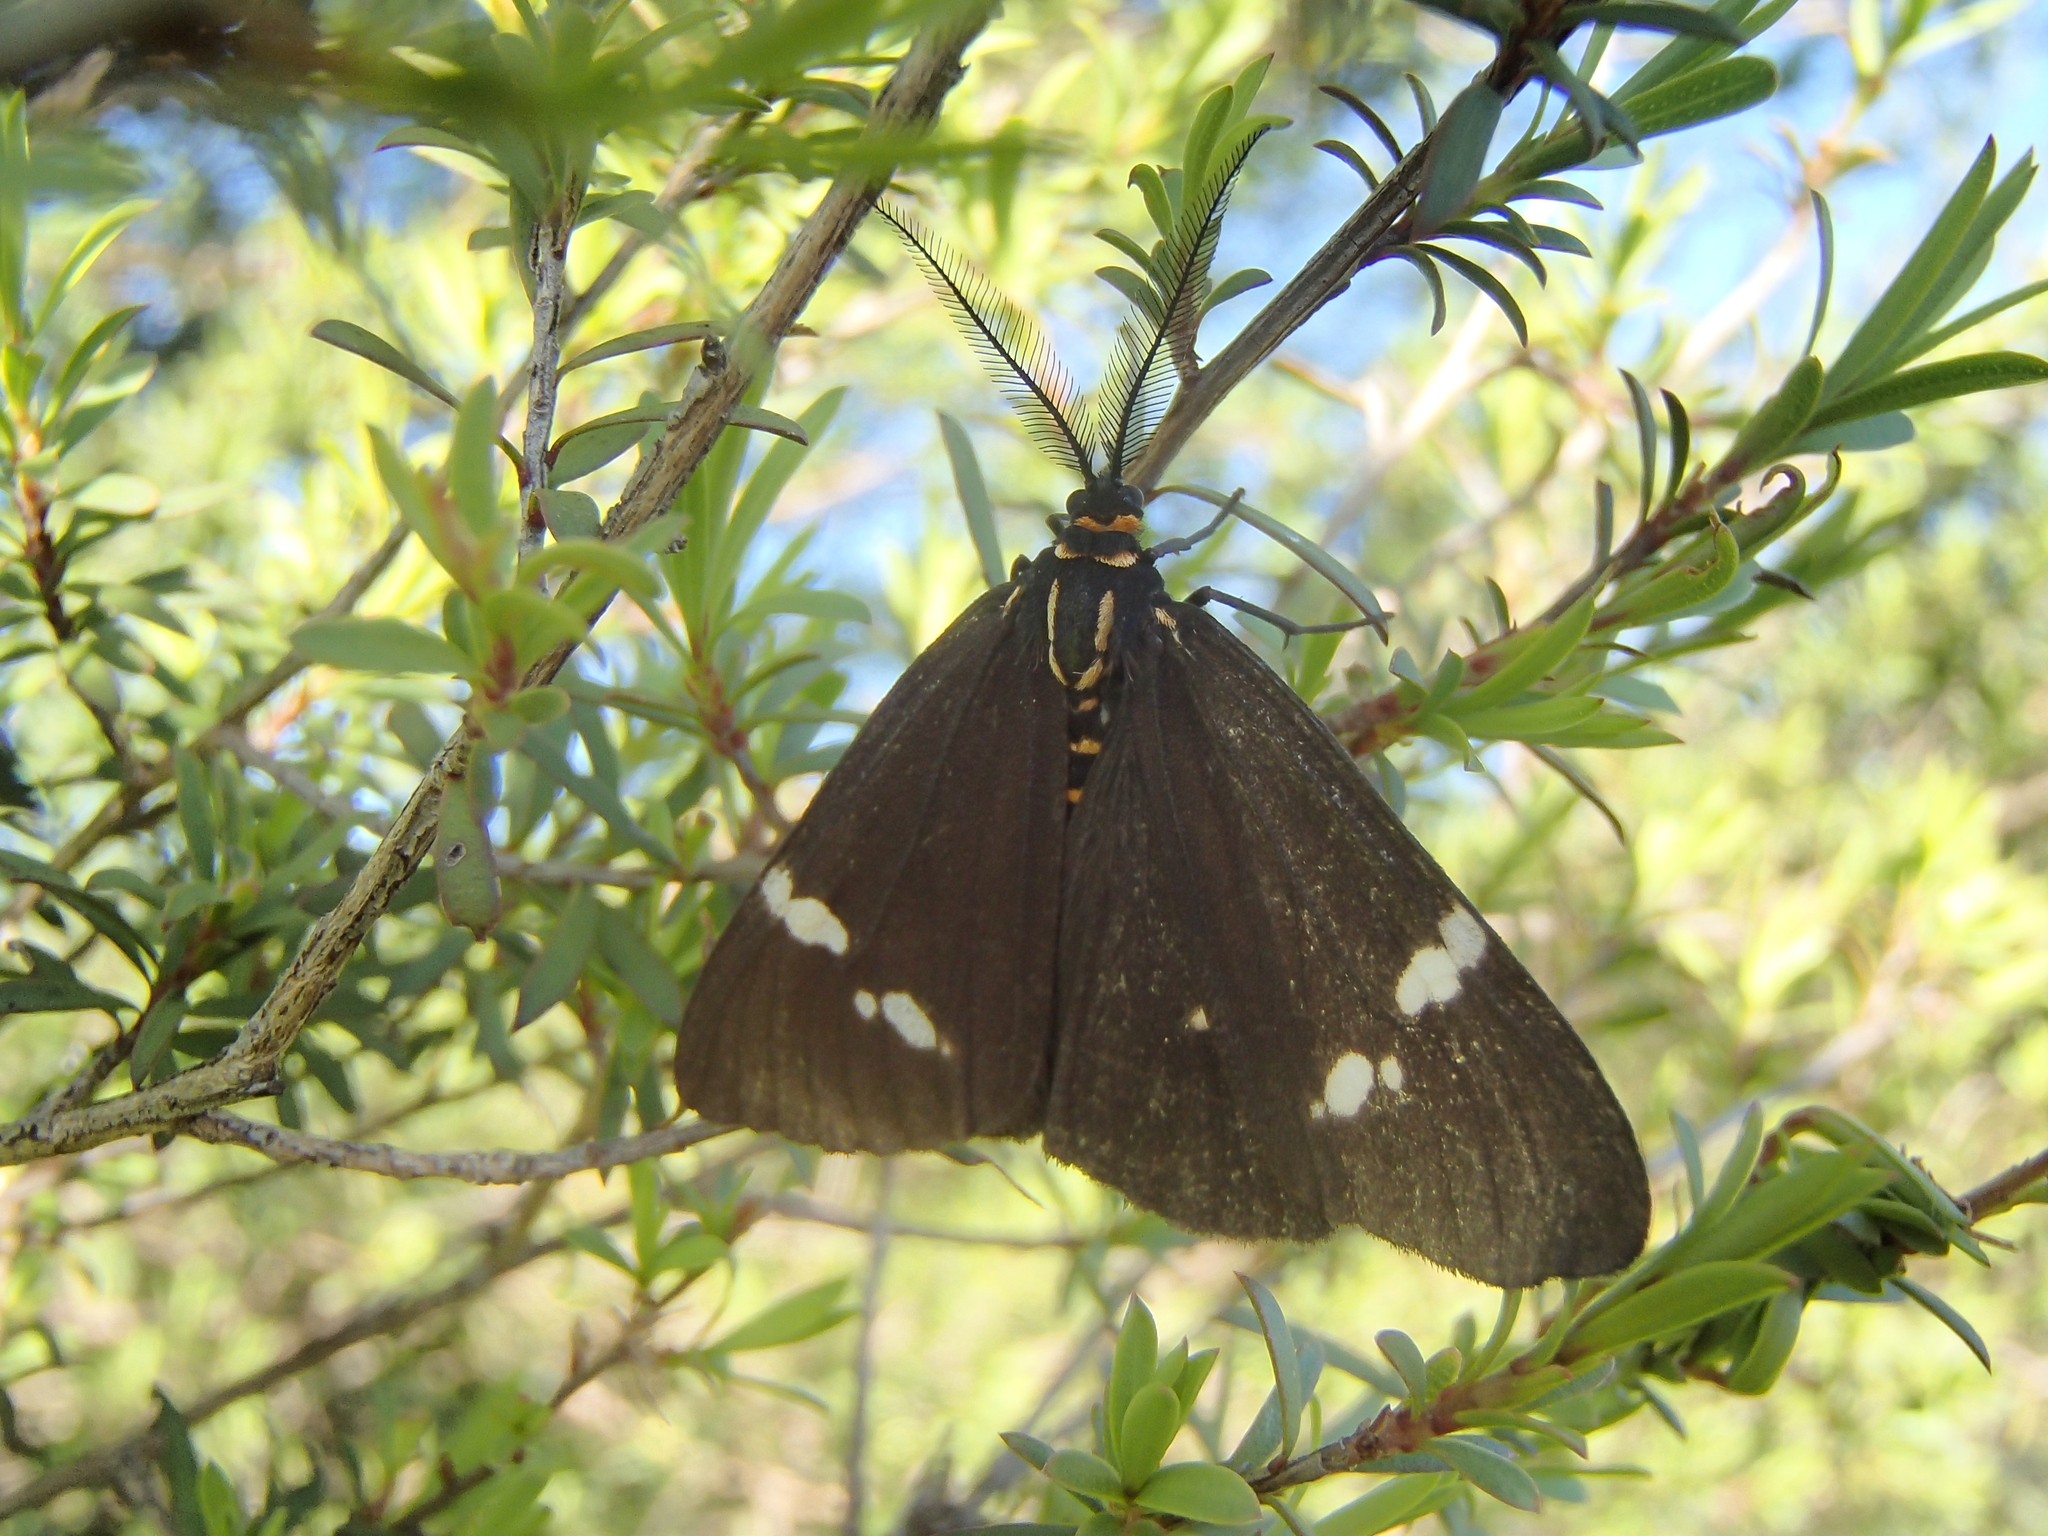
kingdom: Animalia
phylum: Arthropoda
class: Insecta
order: Lepidoptera
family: Erebidae
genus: Nyctemera
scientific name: Nyctemera annulatum
